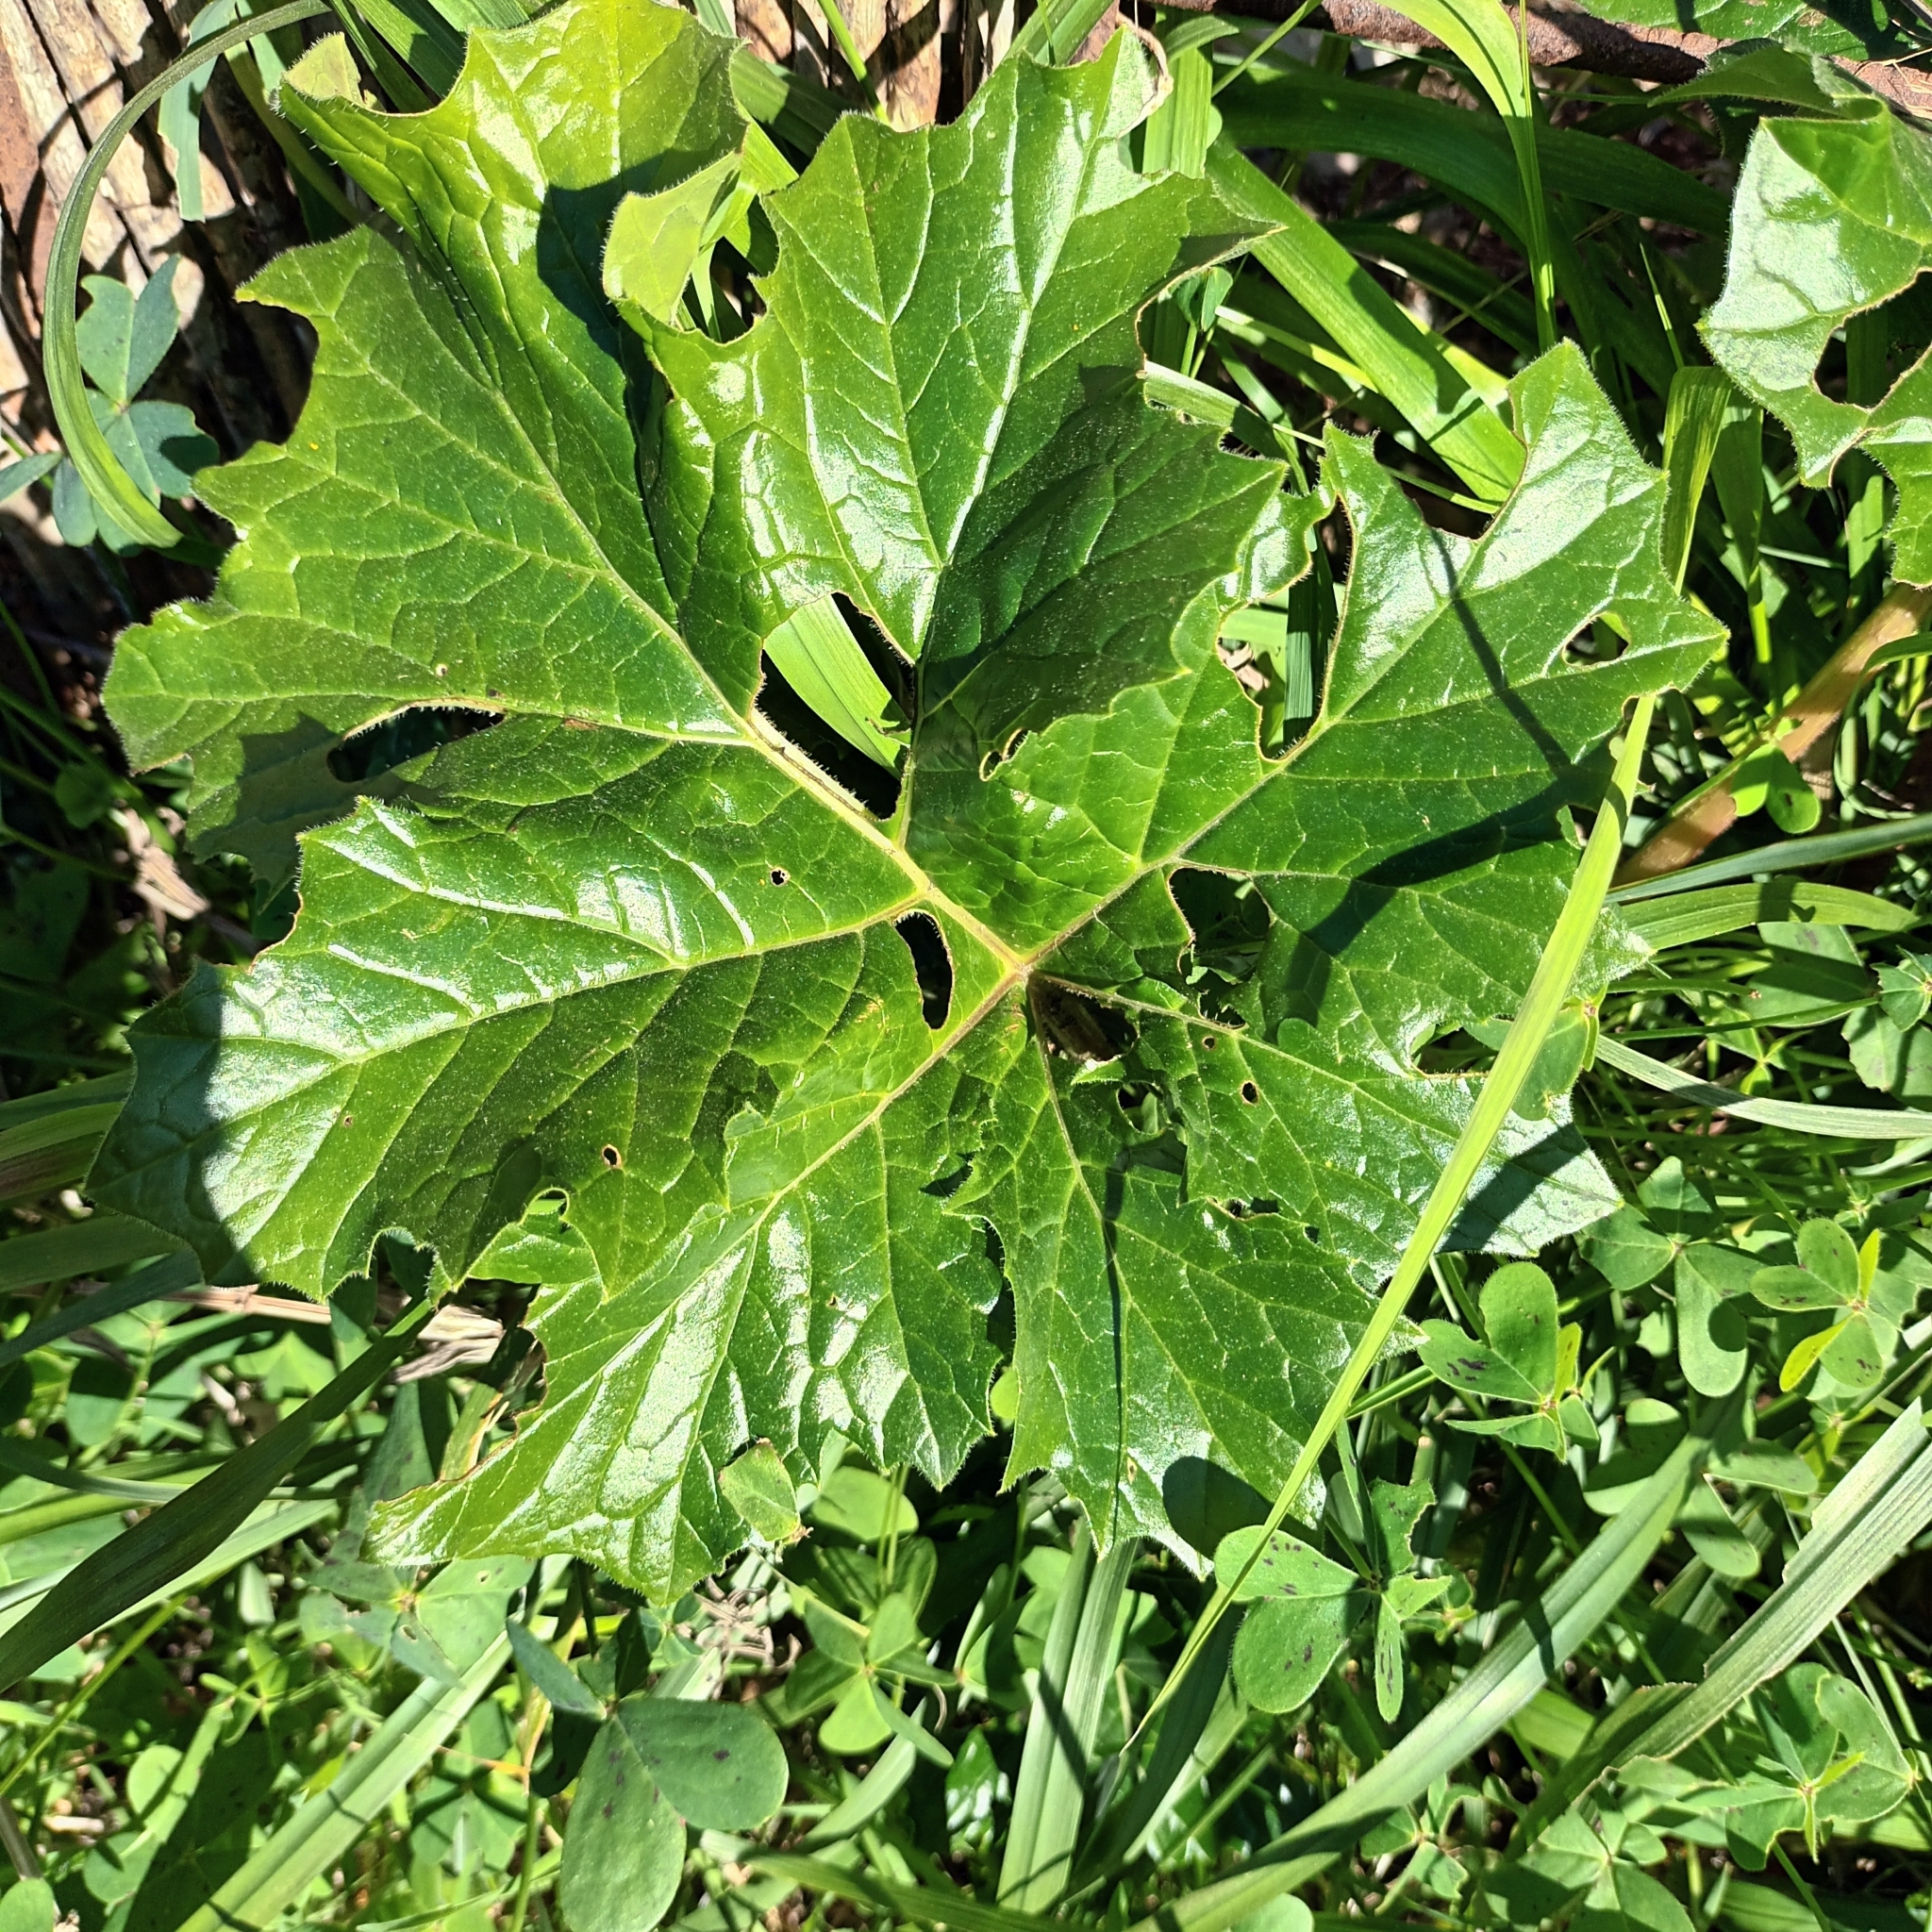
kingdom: Plantae
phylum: Tracheophyta
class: Magnoliopsida
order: Lamiales
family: Acanthaceae
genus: Acanthus
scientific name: Acanthus mollis
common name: Bear's-breech
